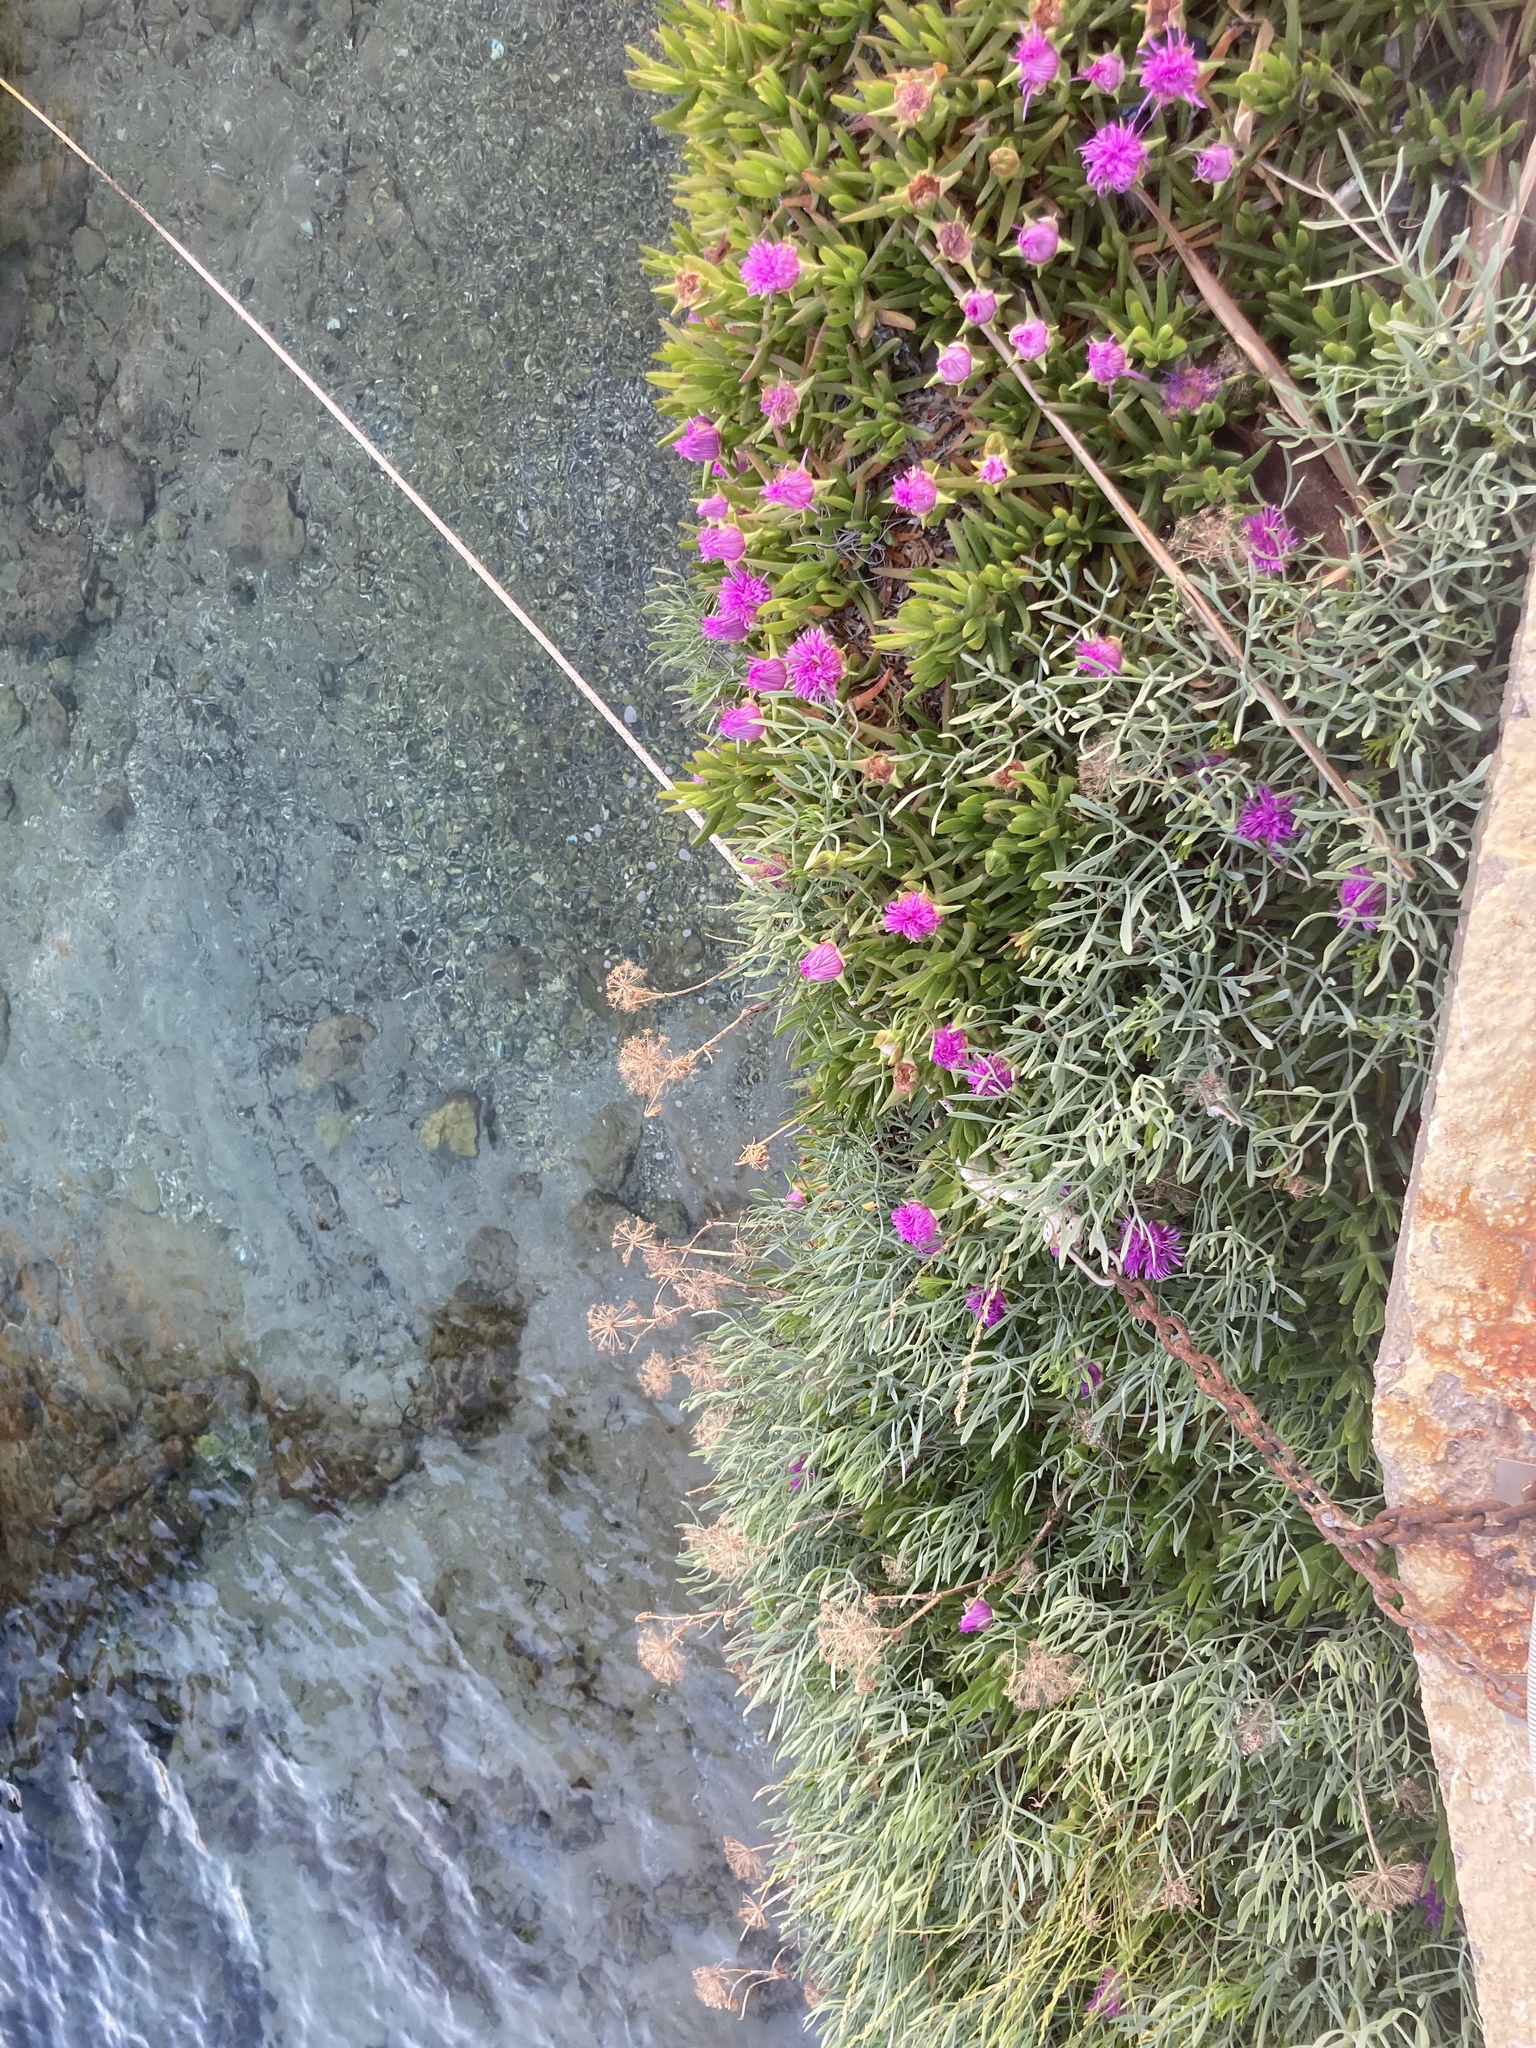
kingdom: Plantae
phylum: Tracheophyta
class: Magnoliopsida
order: Caryophyllales
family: Aizoaceae
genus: Carpobrotus
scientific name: Carpobrotus acinaciformis
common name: Sally-my-handsome
